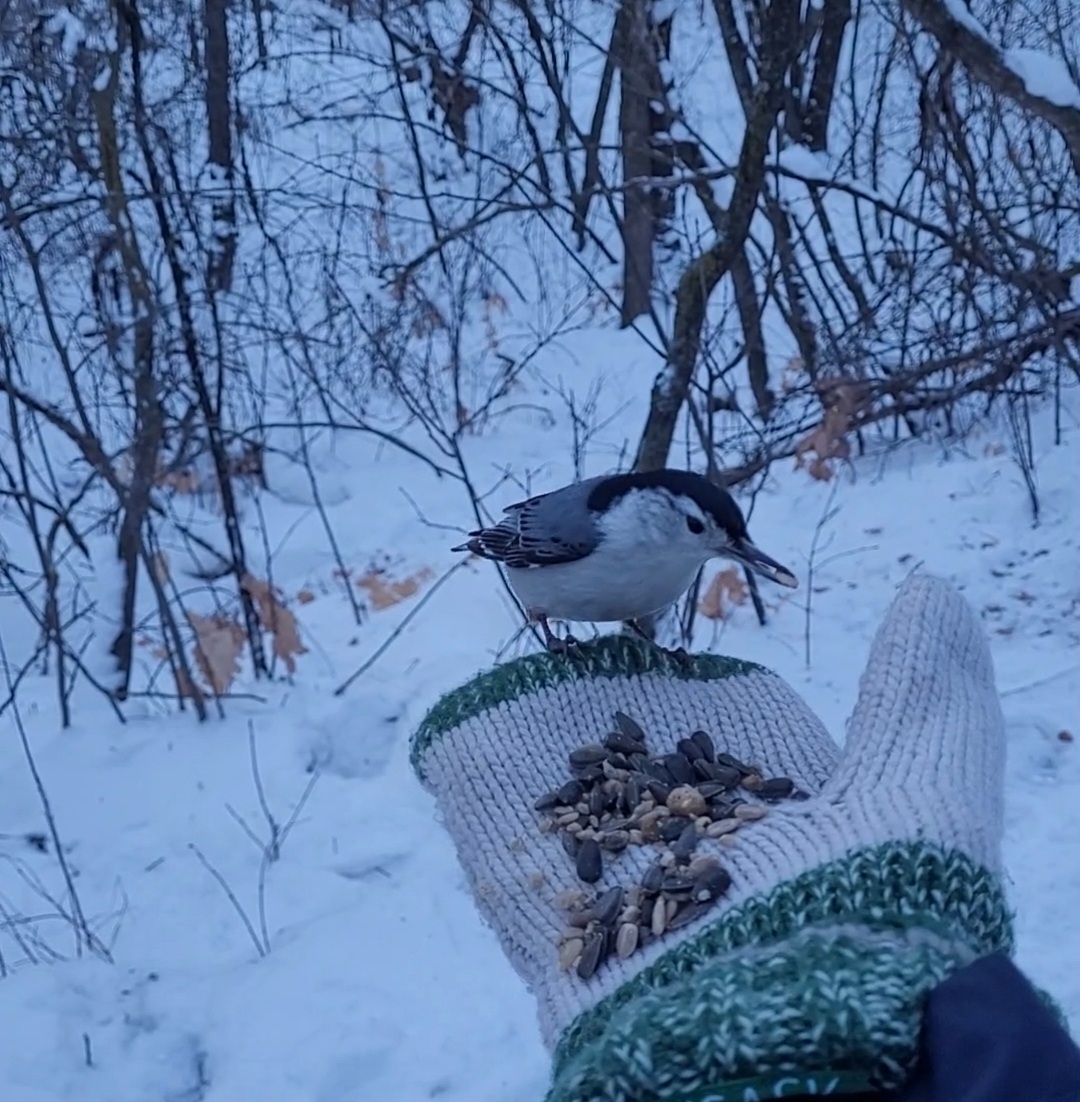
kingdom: Animalia
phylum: Chordata
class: Aves
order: Passeriformes
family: Sittidae
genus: Sitta
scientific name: Sitta carolinensis
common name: White-breasted nuthatch
